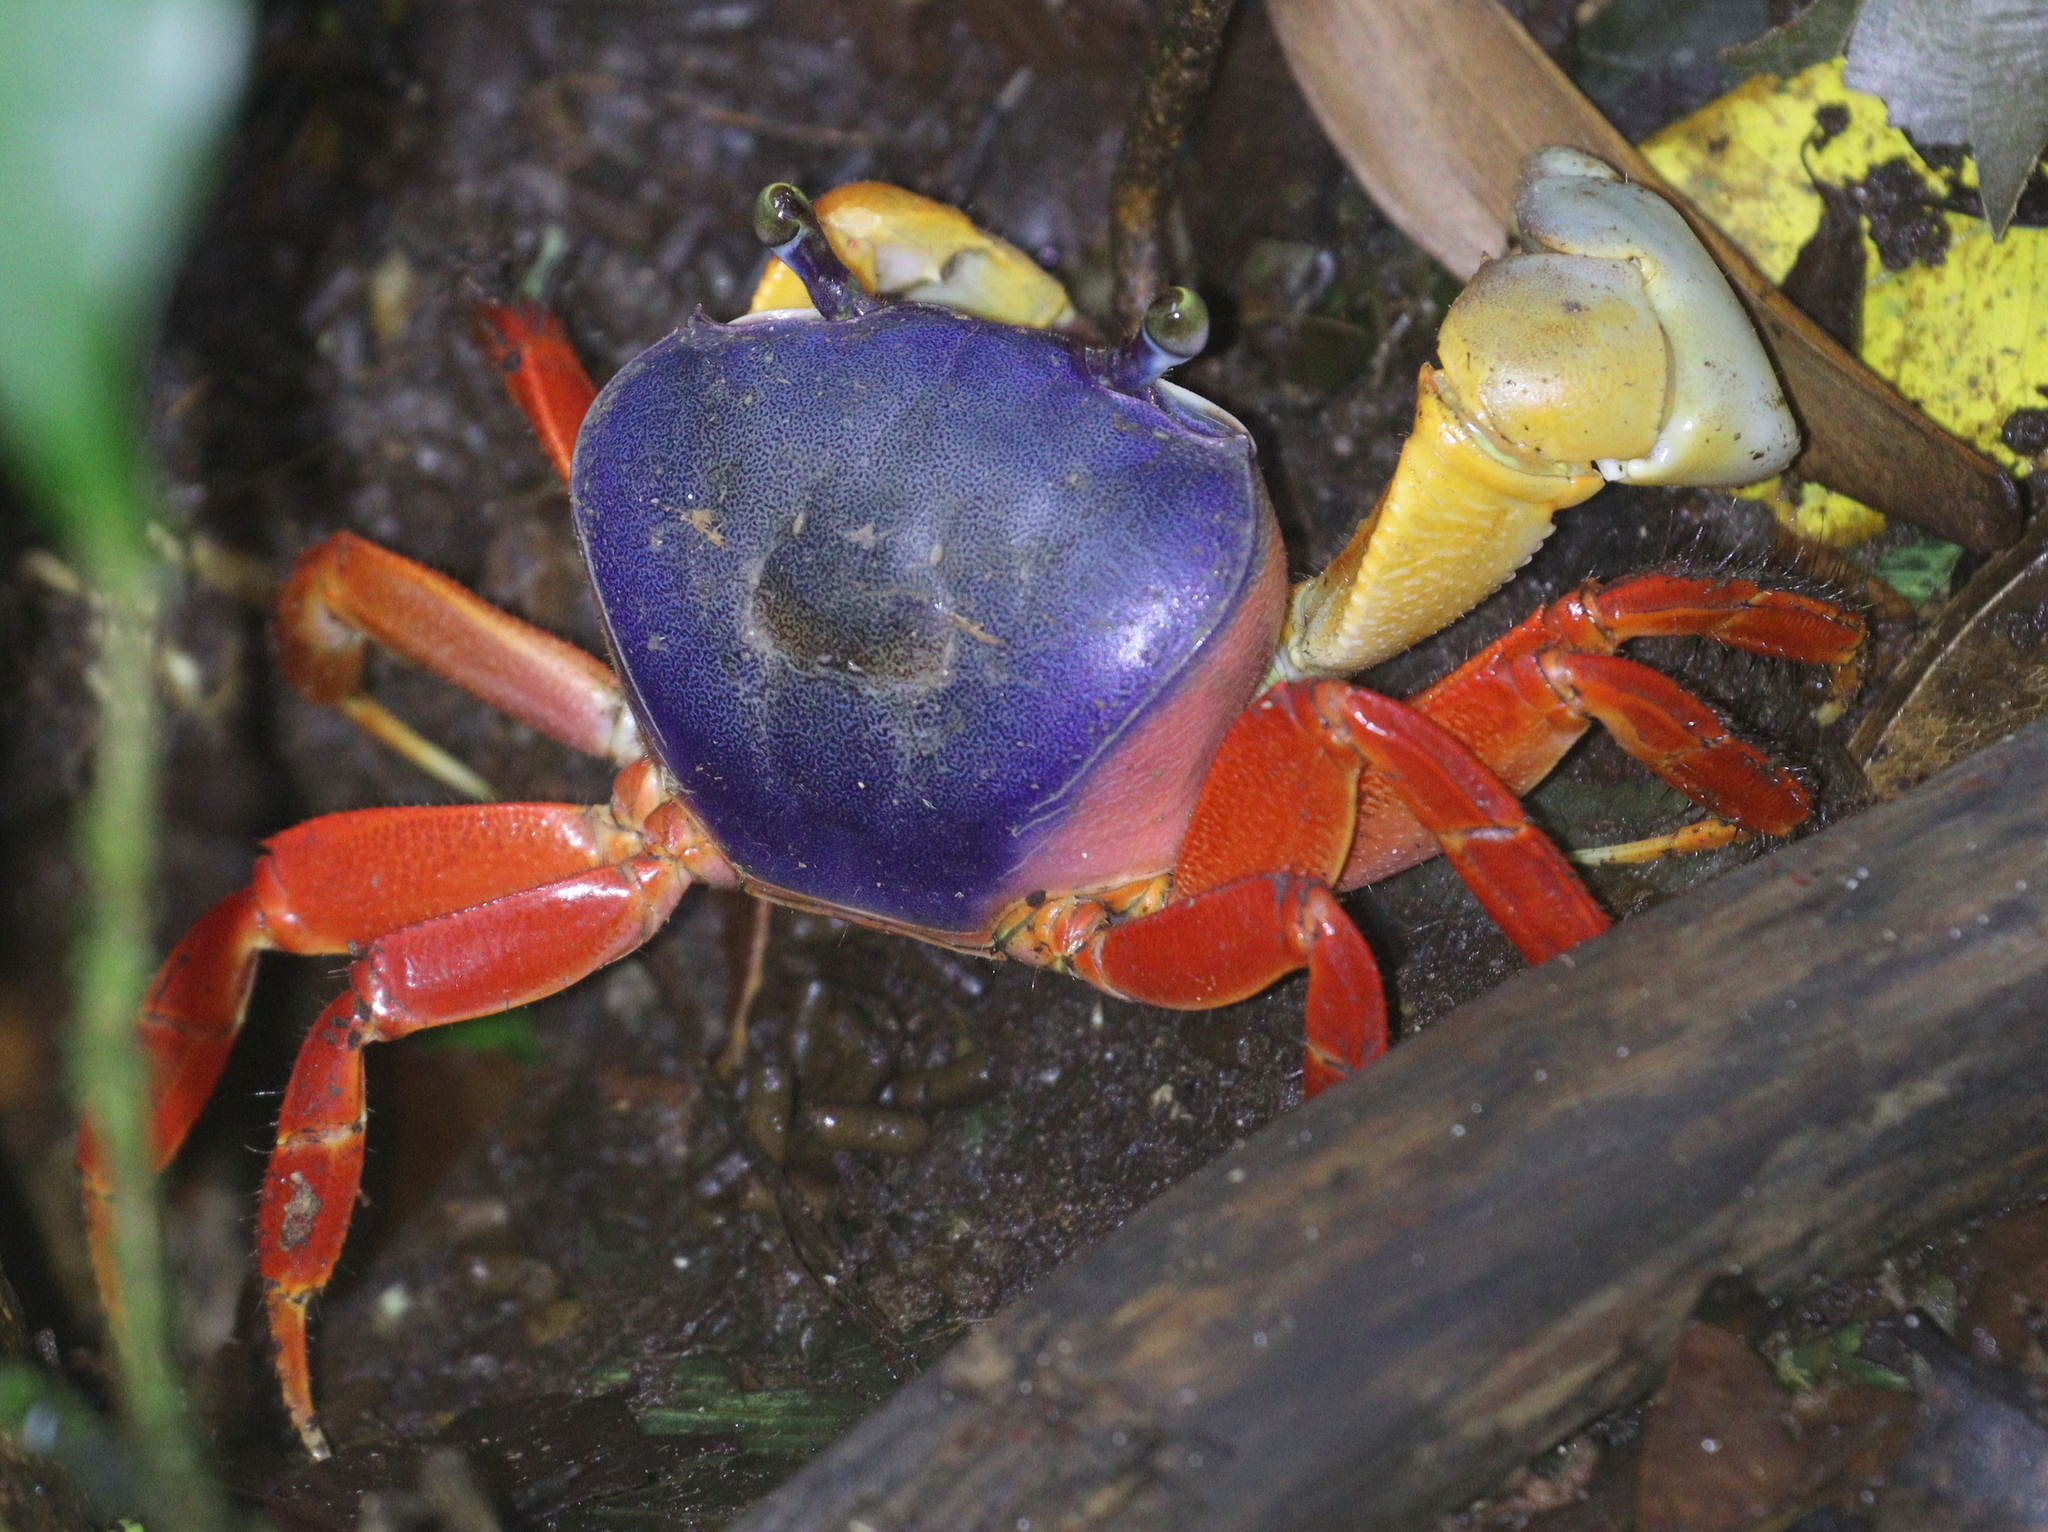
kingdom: Animalia
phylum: Arthropoda
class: Malacostraca
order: Decapoda
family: Gecarcinidae
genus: Cardisoma
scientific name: Cardisoma crassum
